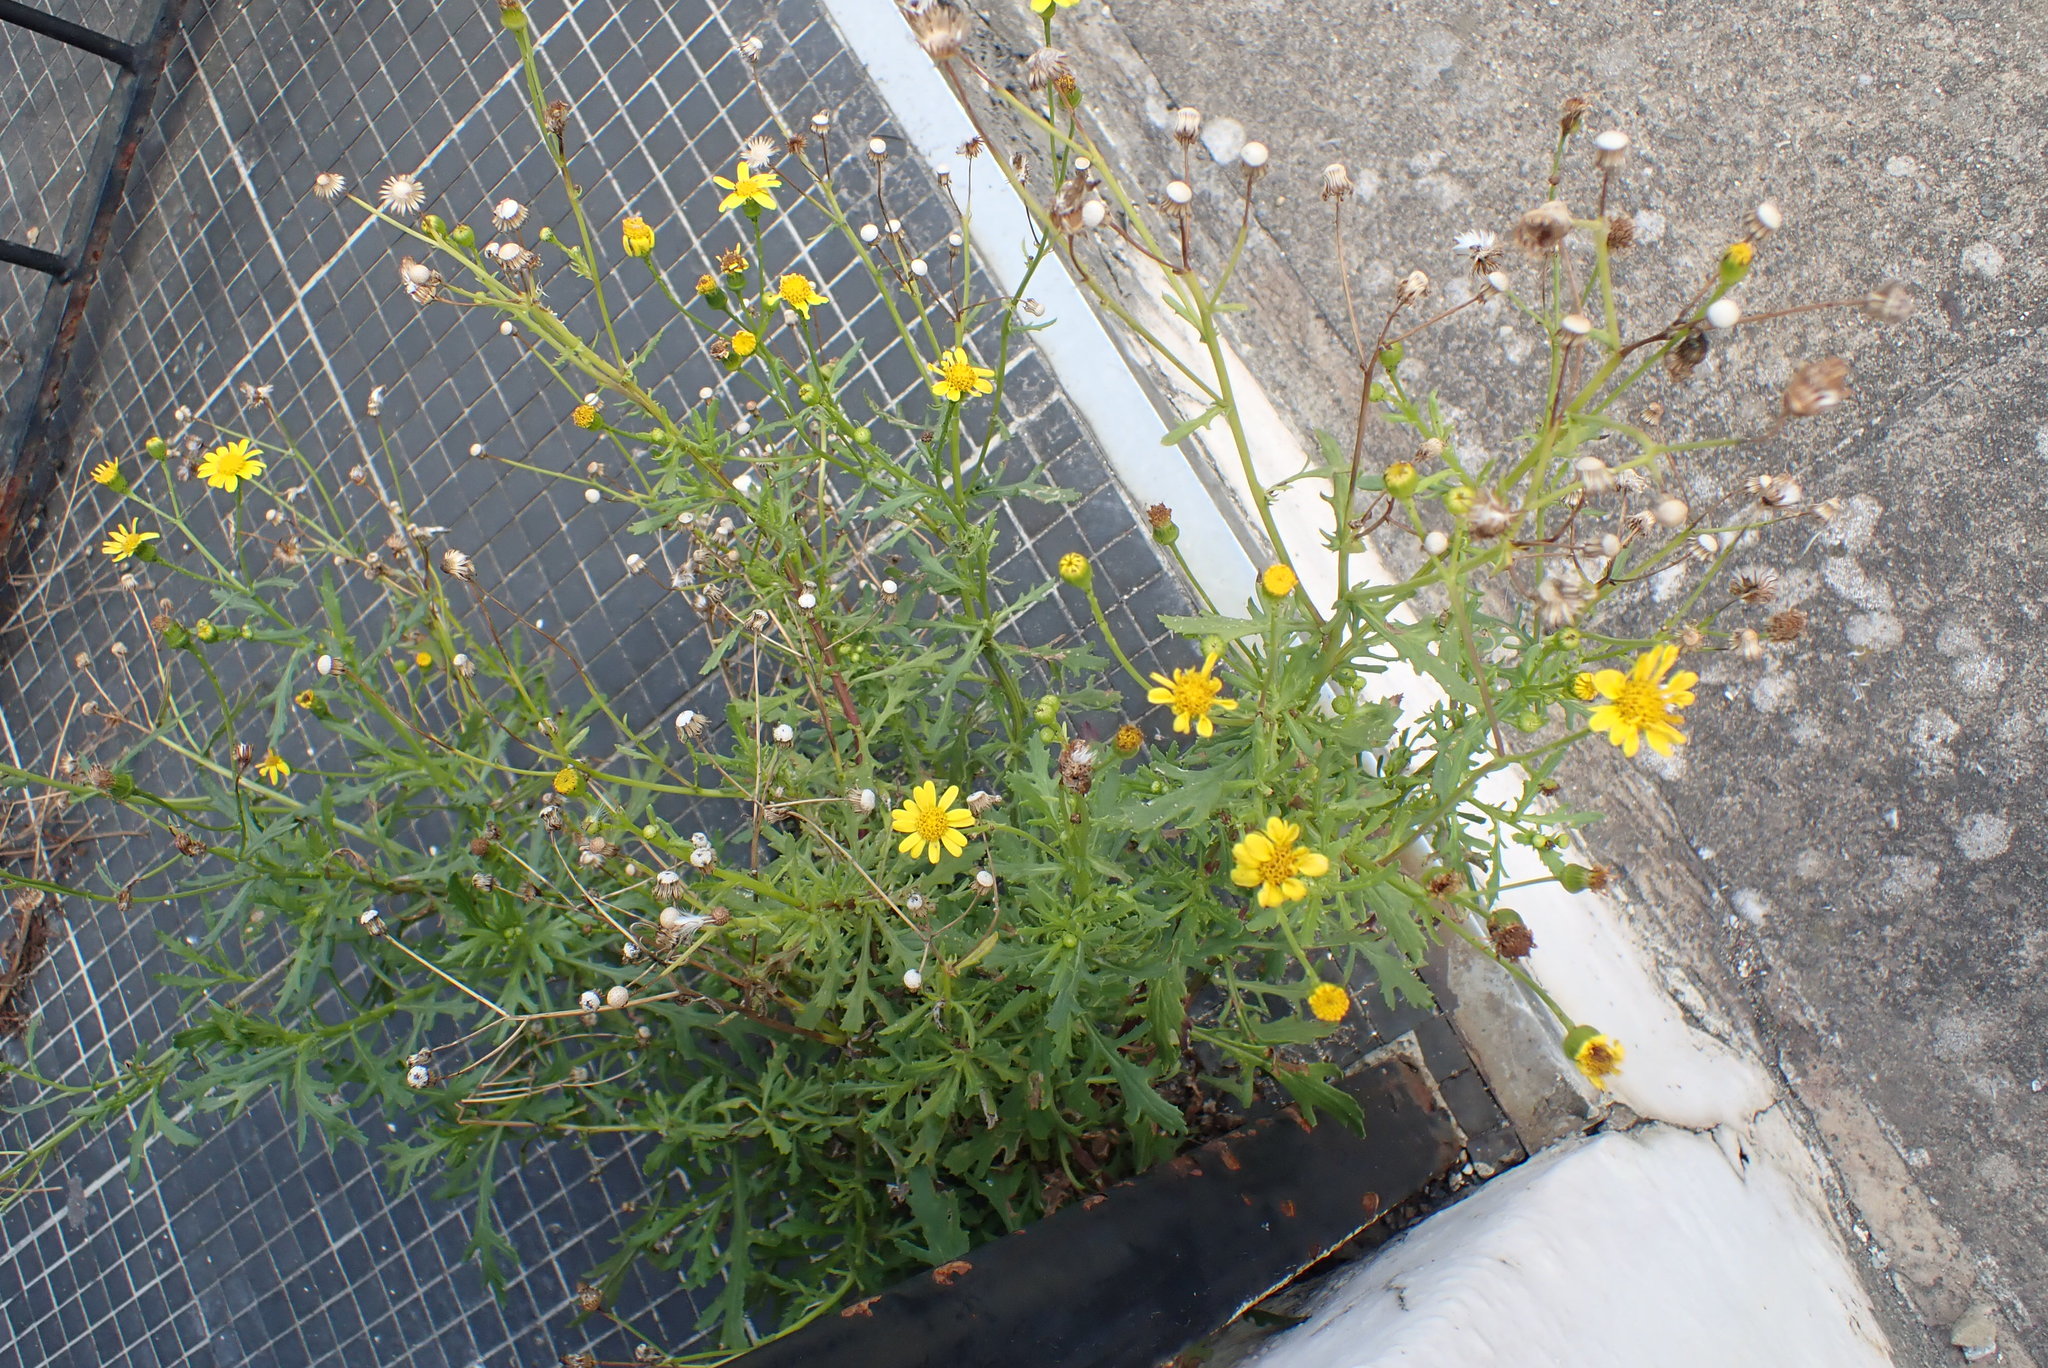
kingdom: Plantae
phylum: Tracheophyta
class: Magnoliopsida
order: Asterales
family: Asteraceae
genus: Senecio
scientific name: Senecio squalidus
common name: Oxford ragwort
